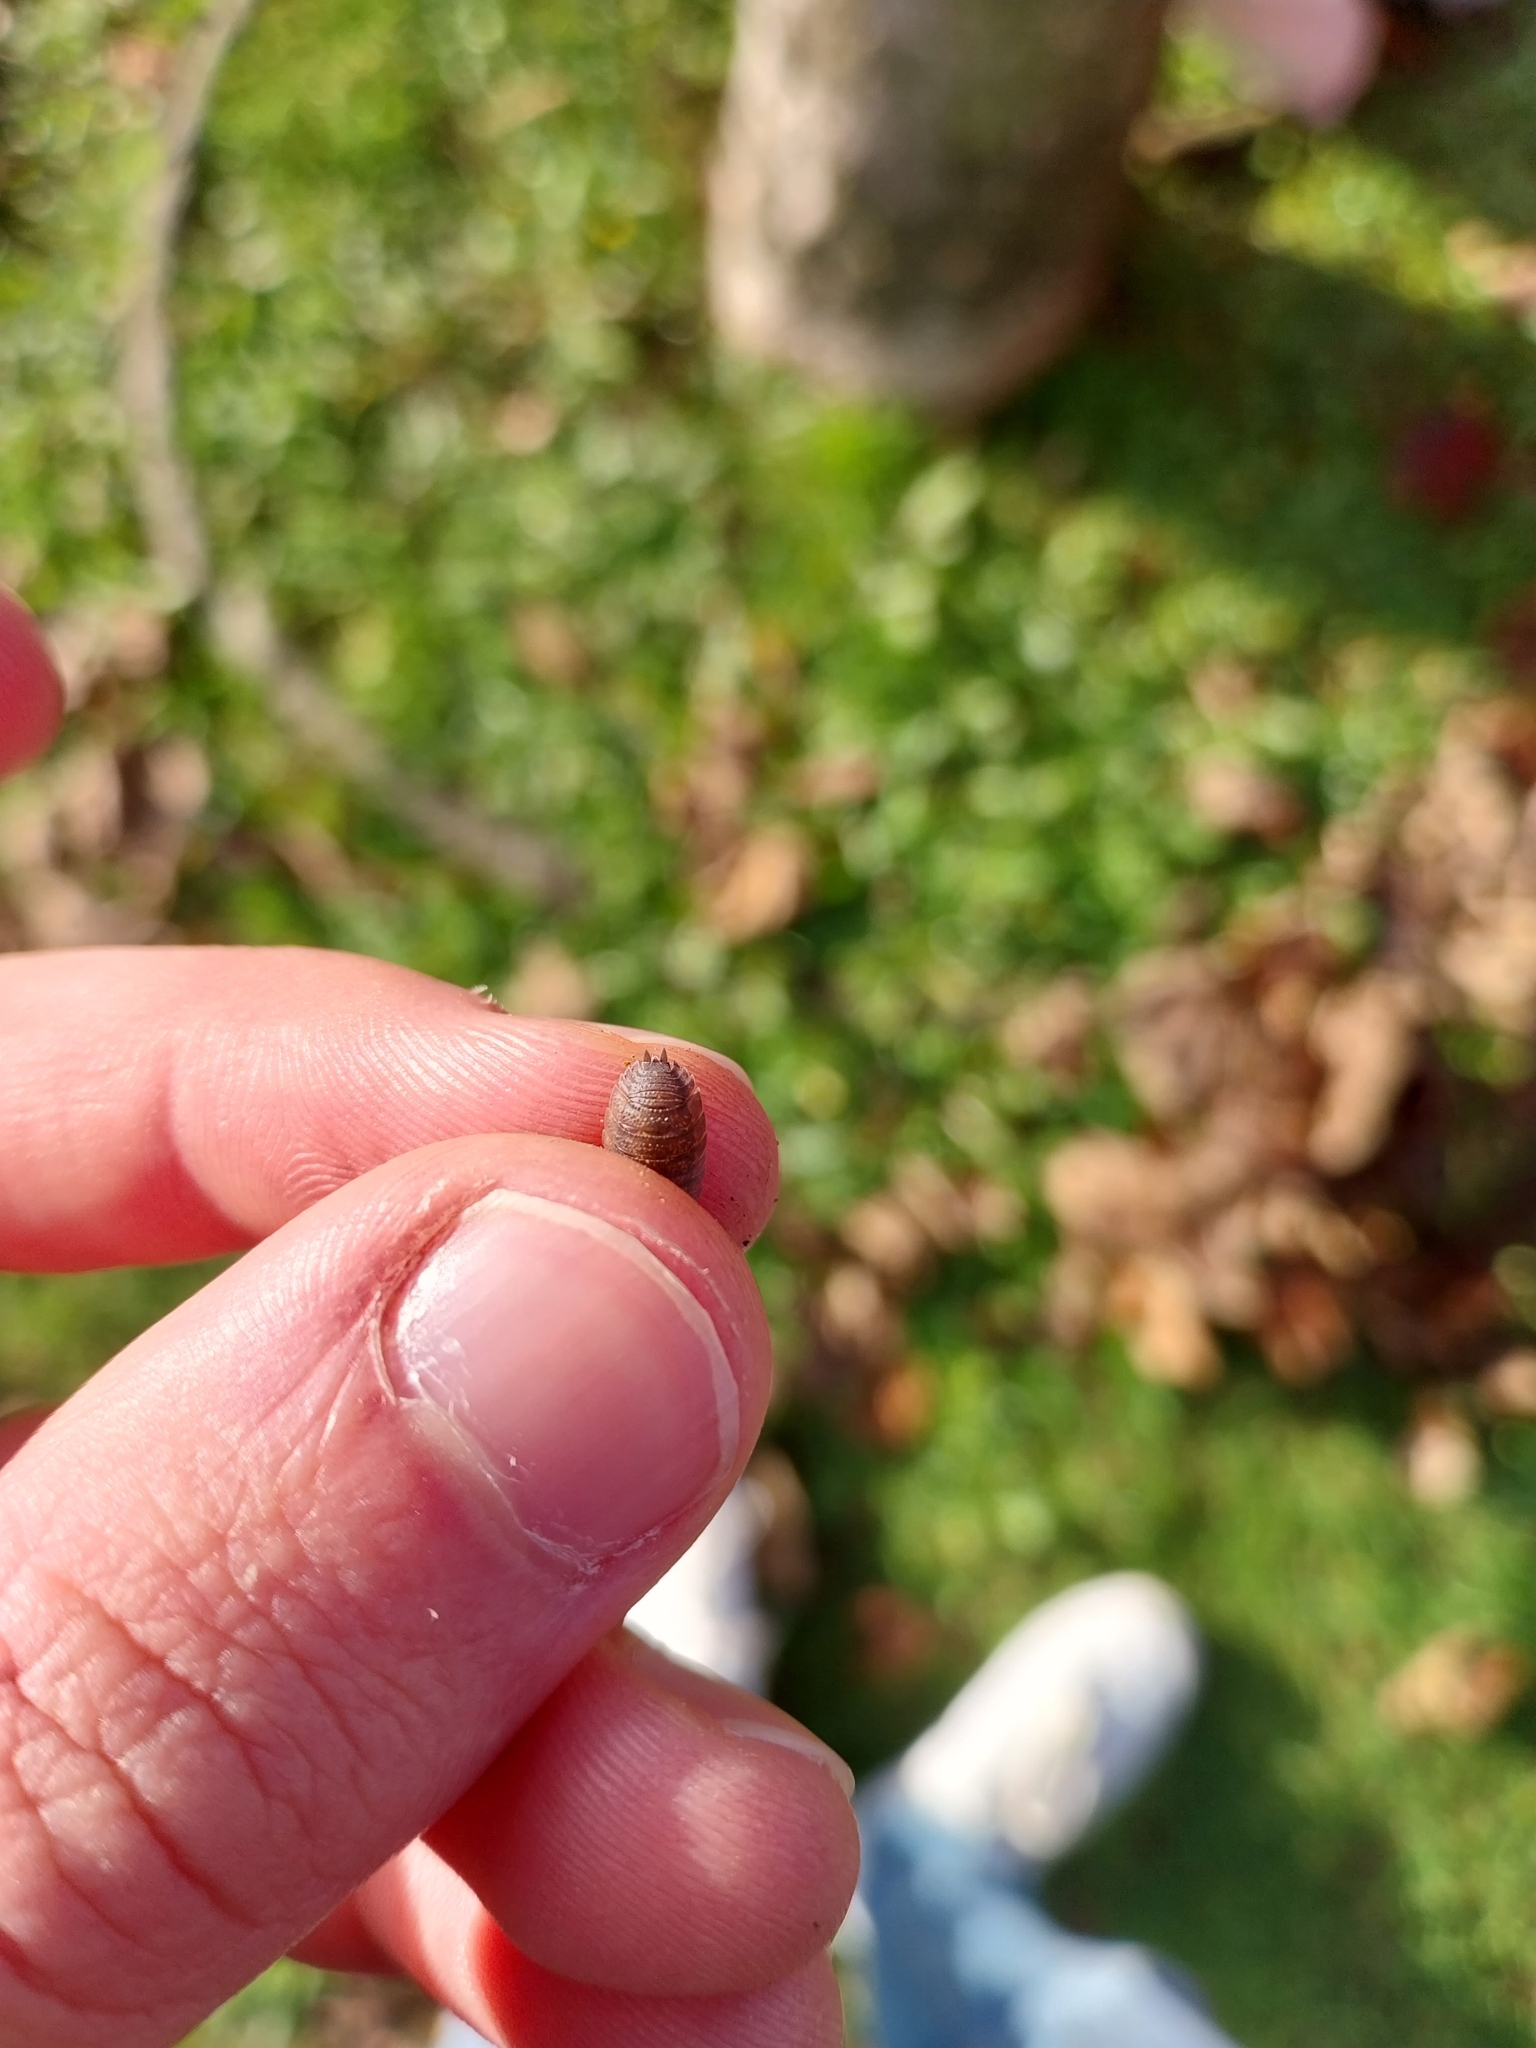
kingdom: Animalia
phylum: Arthropoda
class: Malacostraca
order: Isopoda
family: Porcellionidae
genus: Porcellio
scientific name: Porcellio scaber
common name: Common rough woodlouse
